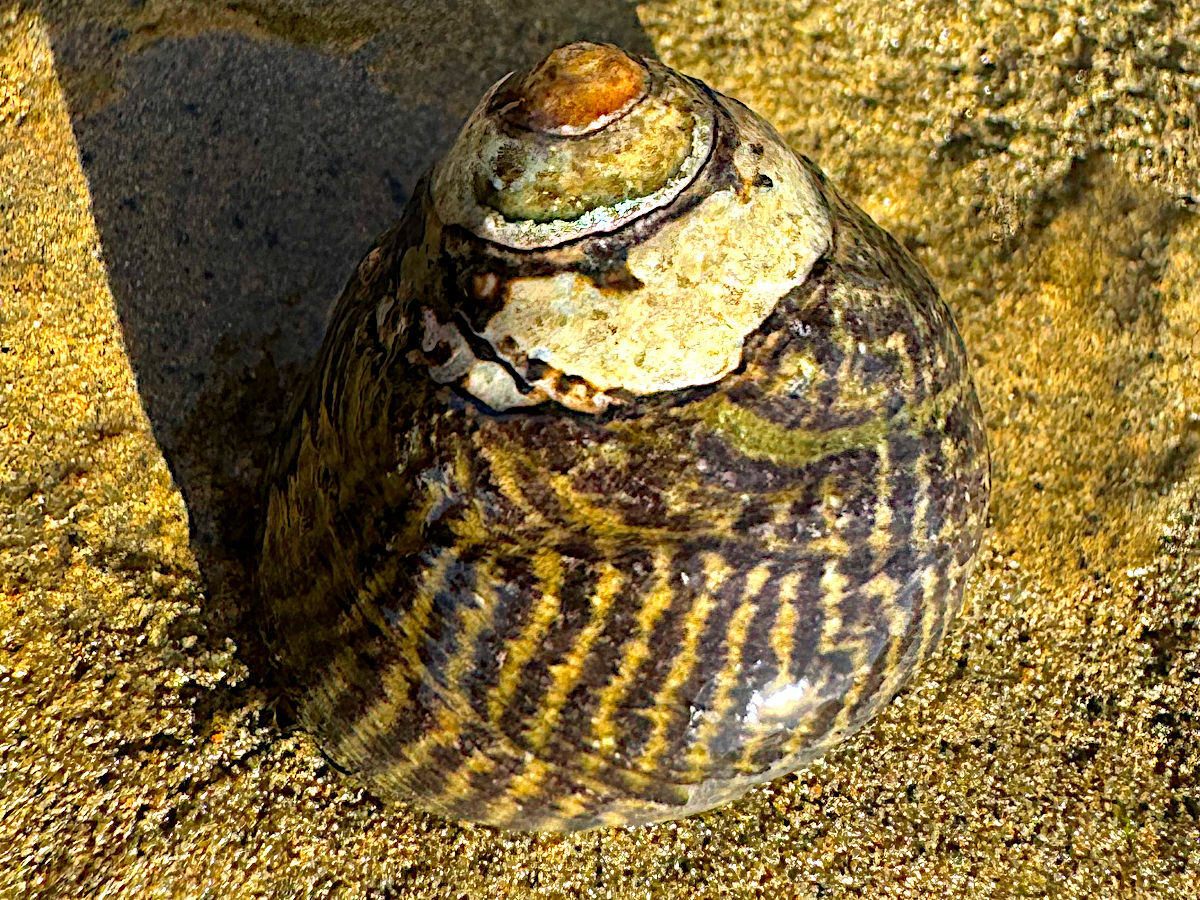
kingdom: Animalia
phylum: Mollusca
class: Gastropoda
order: Trochida
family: Tegulidae
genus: Tegula
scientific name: Tegula gallina
